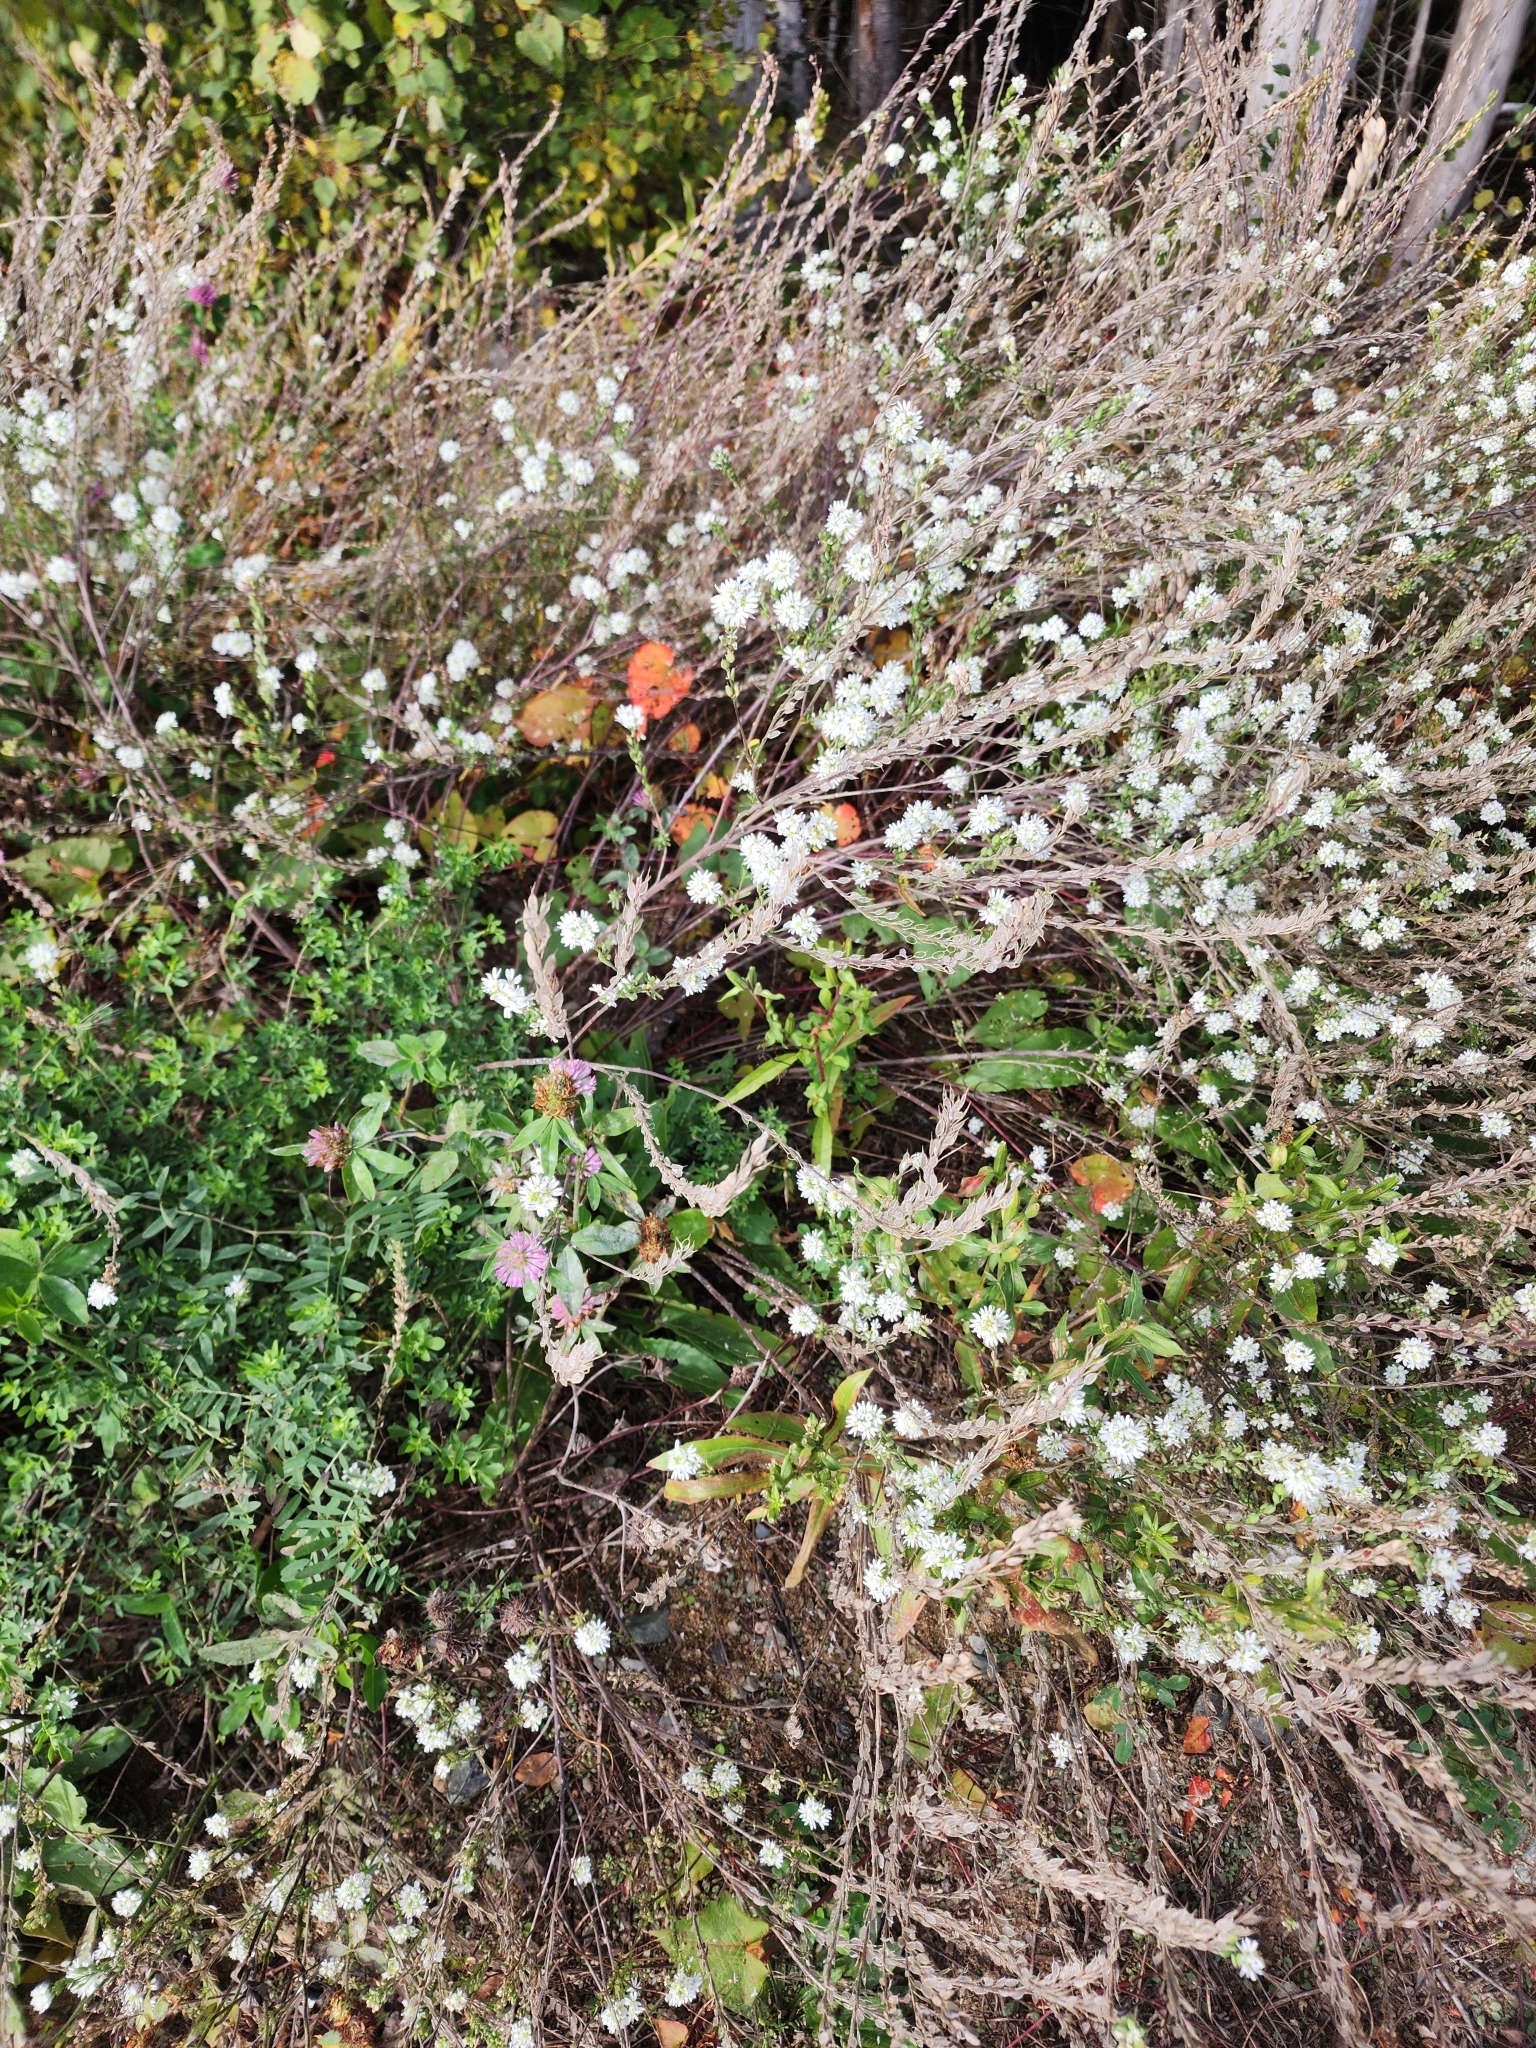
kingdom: Plantae
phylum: Tracheophyta
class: Magnoliopsida
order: Brassicales
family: Brassicaceae
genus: Berteroa
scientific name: Berteroa incana
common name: Hoary alison
